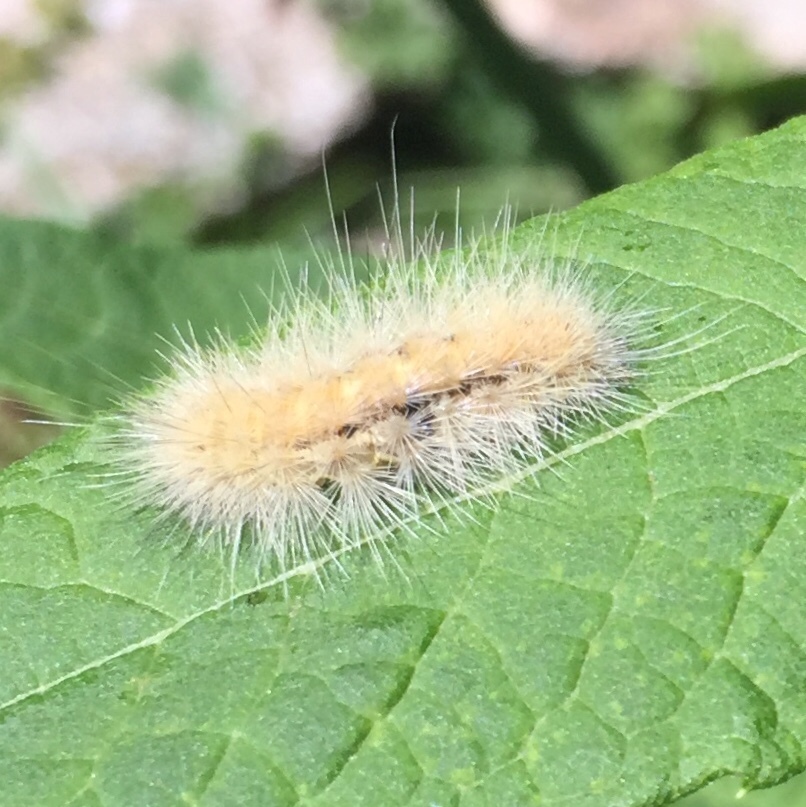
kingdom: Animalia
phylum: Arthropoda
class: Insecta
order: Lepidoptera
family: Erebidae
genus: Spilosoma
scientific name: Spilosoma virginica
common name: Virginia tiger moth
